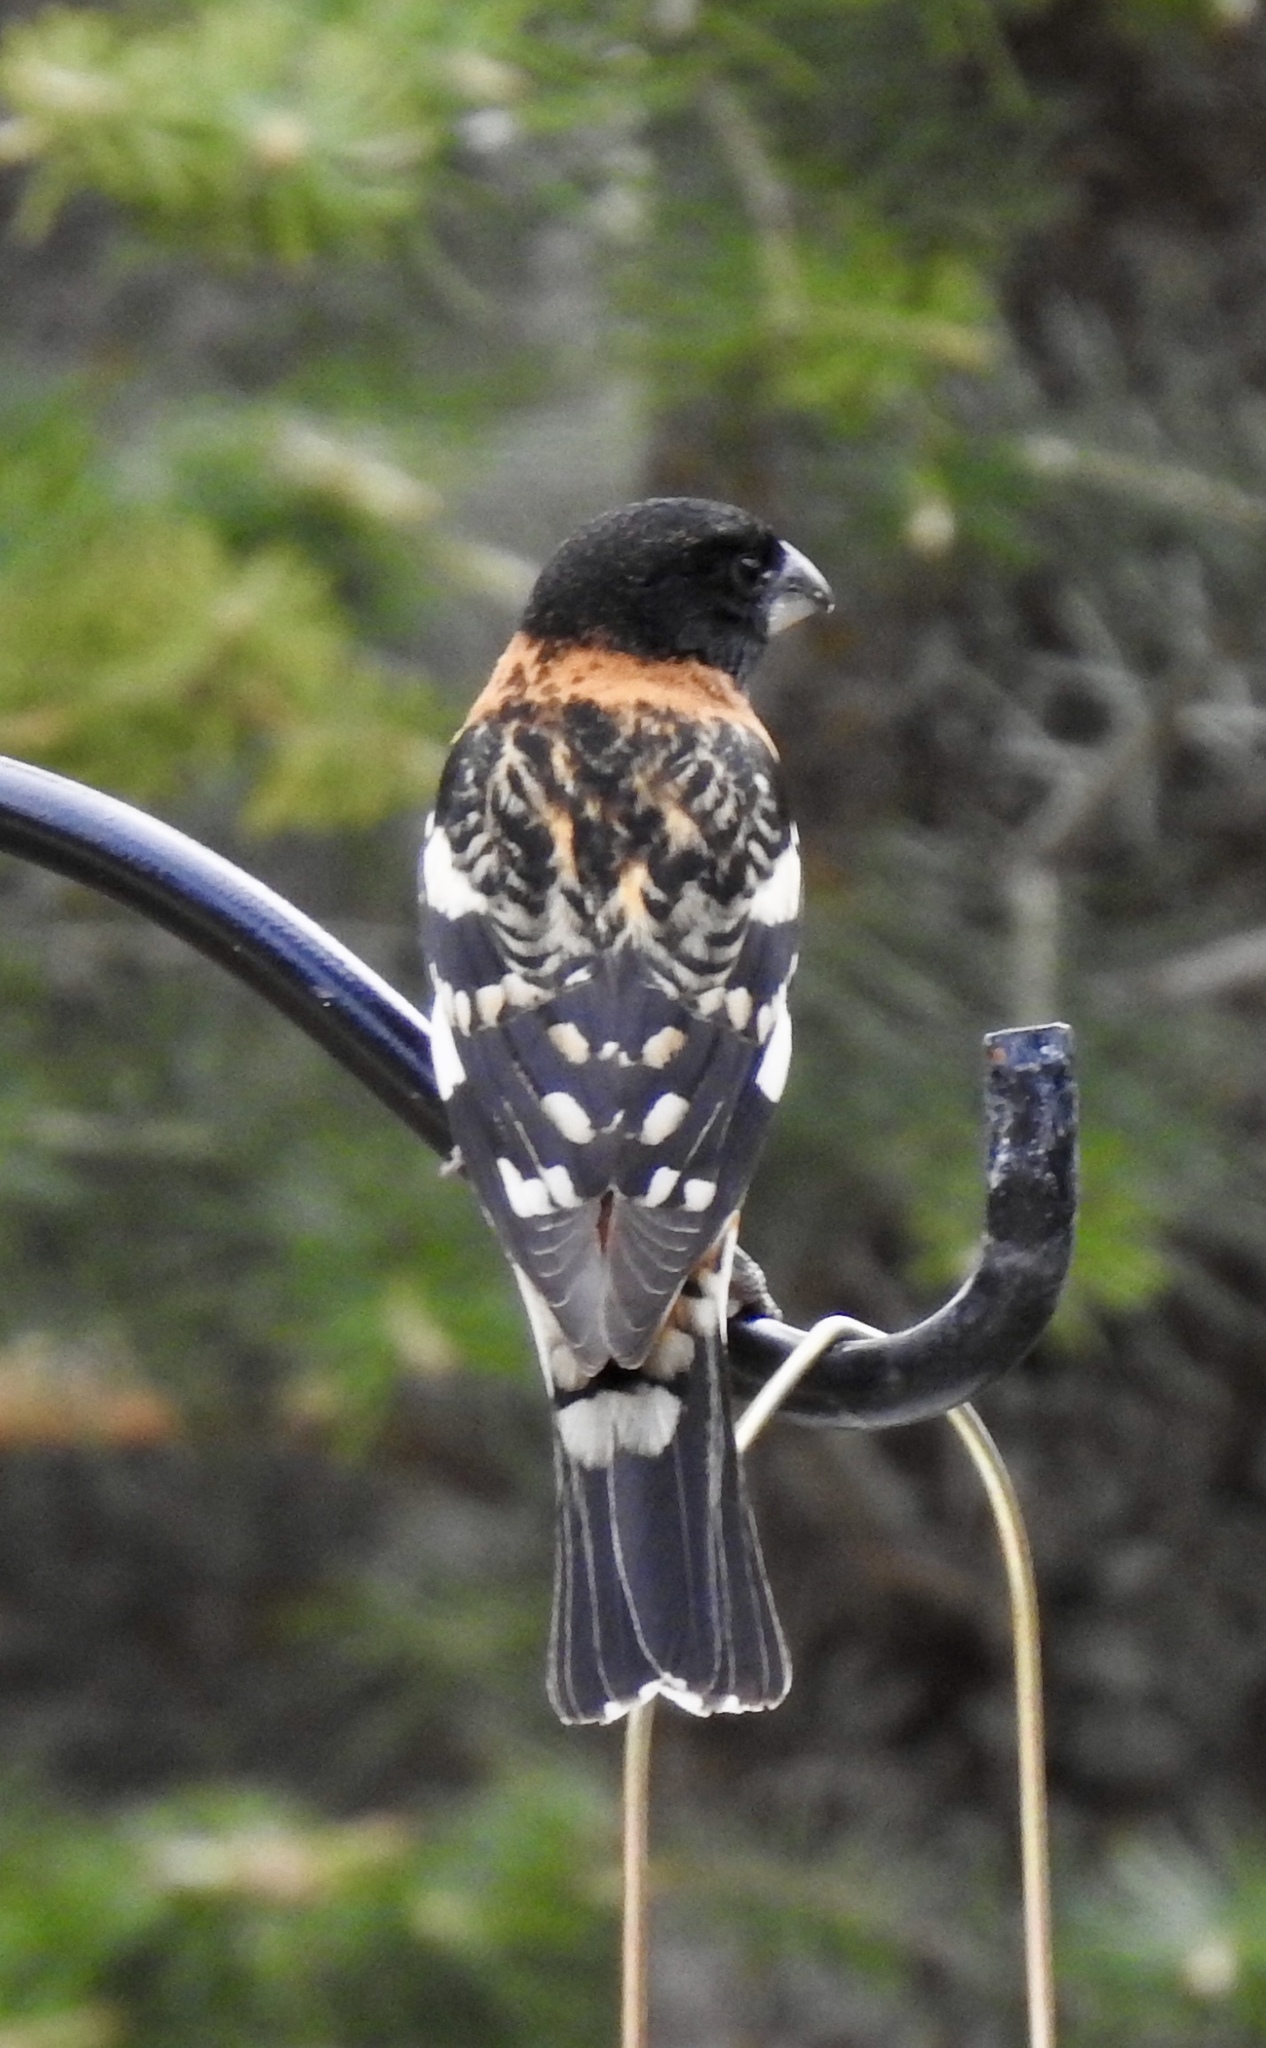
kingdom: Animalia
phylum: Chordata
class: Aves
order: Passeriformes
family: Cardinalidae
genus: Pheucticus
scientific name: Pheucticus melanocephalus
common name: Black-headed grosbeak
